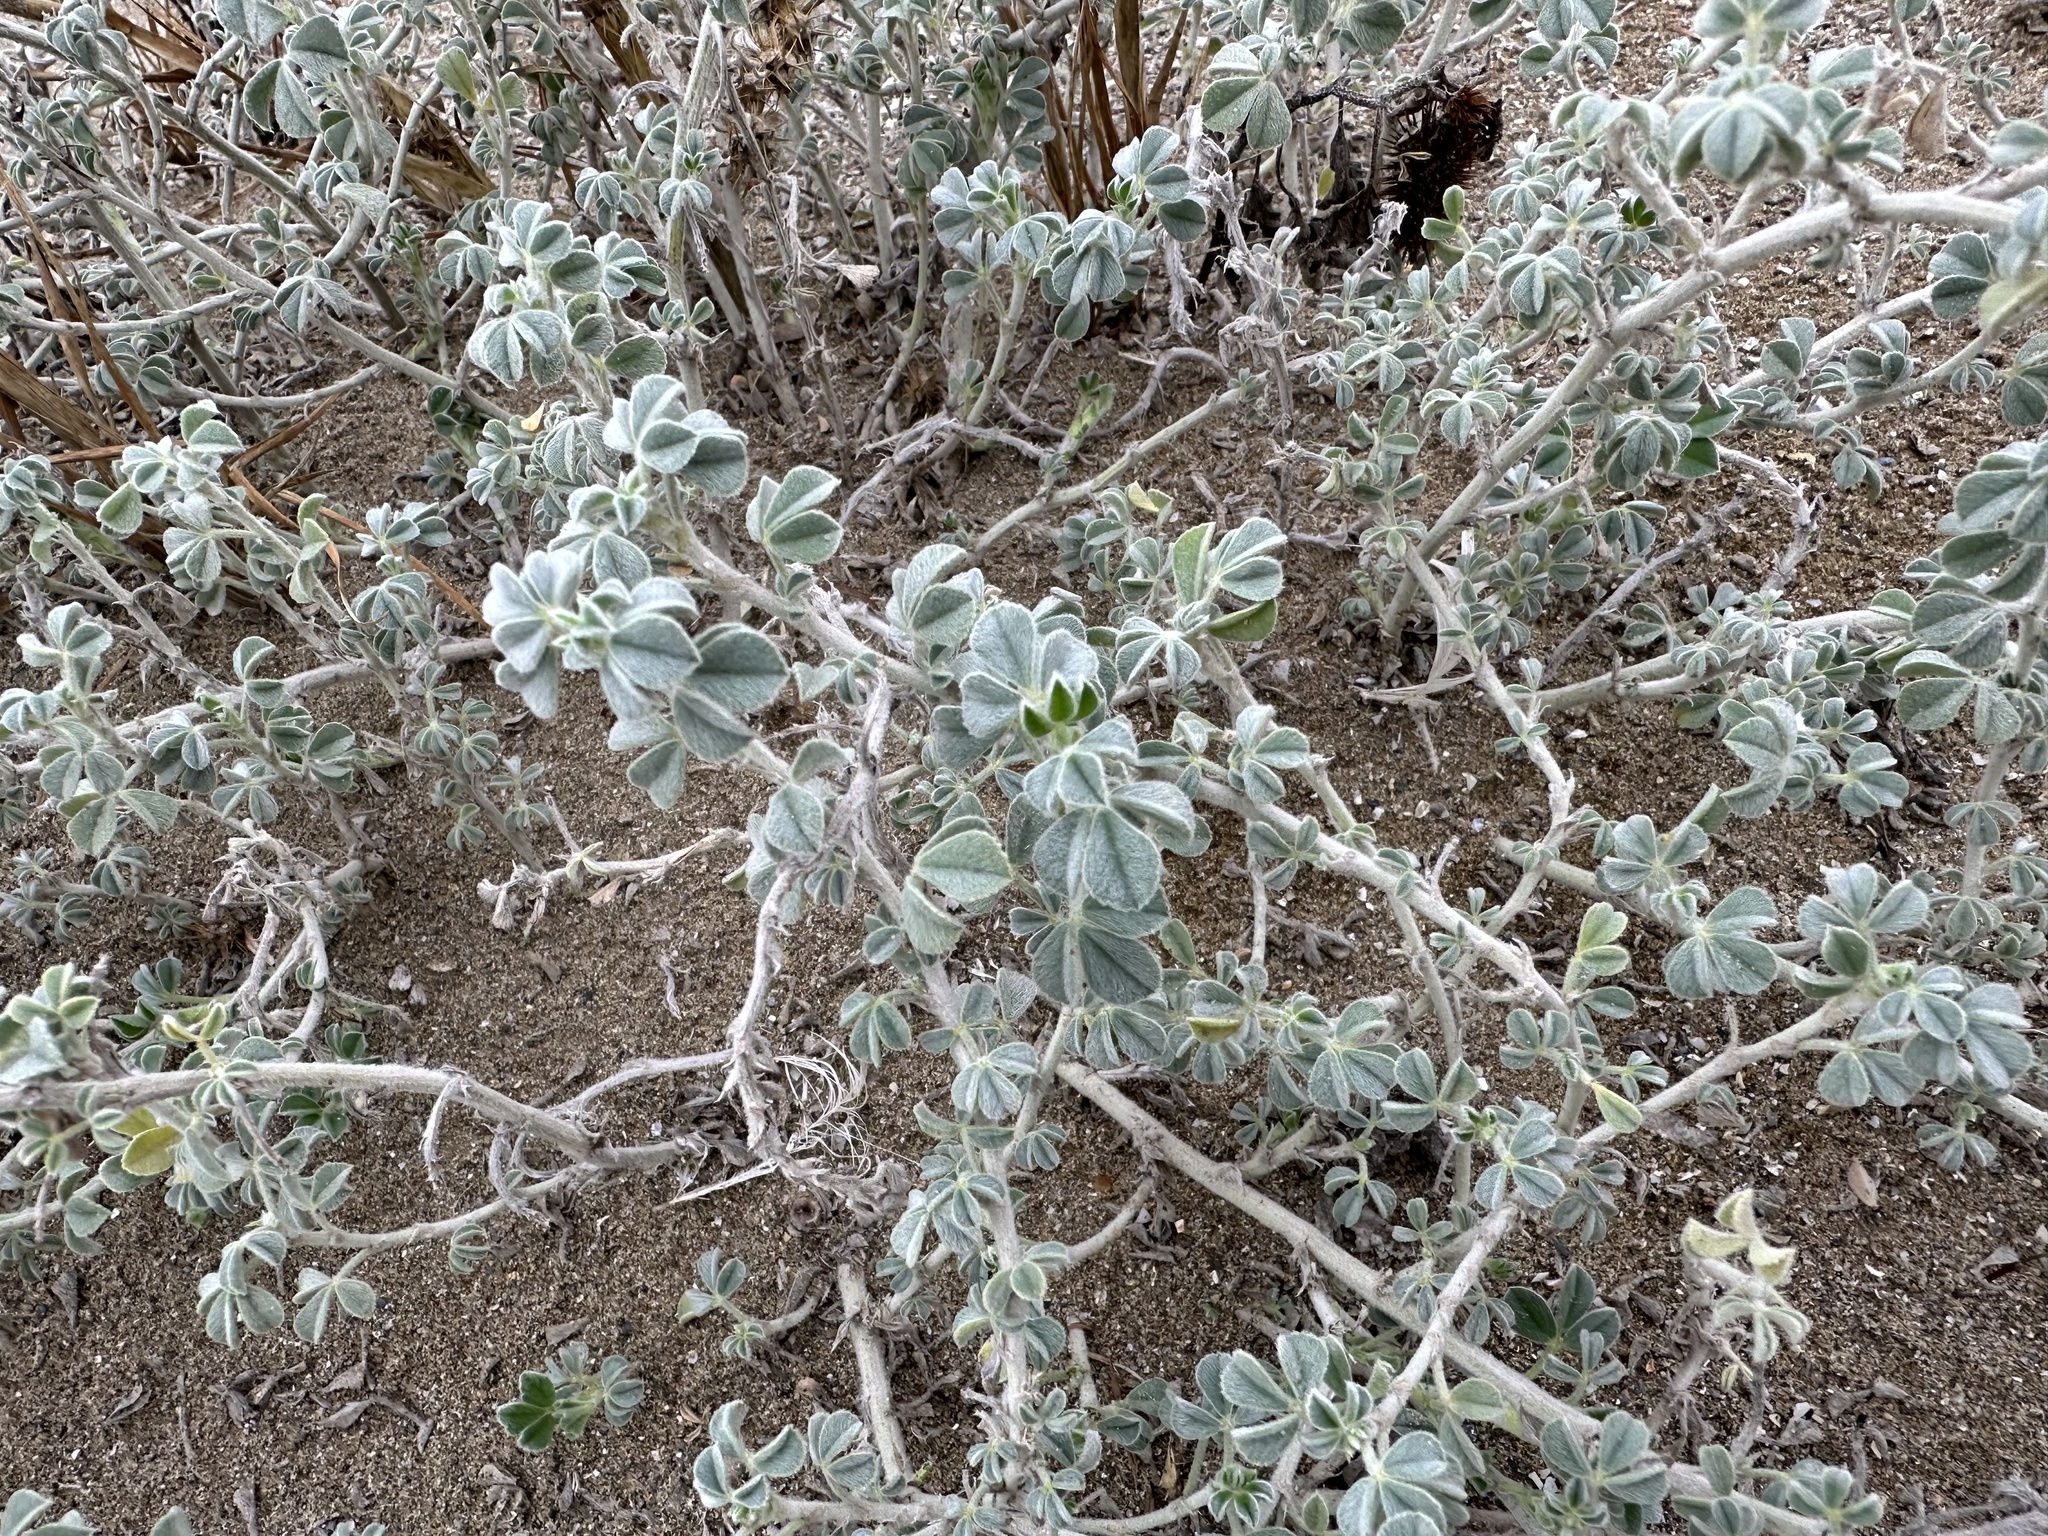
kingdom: Plantae
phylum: Tracheophyta
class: Magnoliopsida
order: Fabales
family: Fabaceae
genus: Medicago
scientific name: Medicago marina
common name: Sea medick
